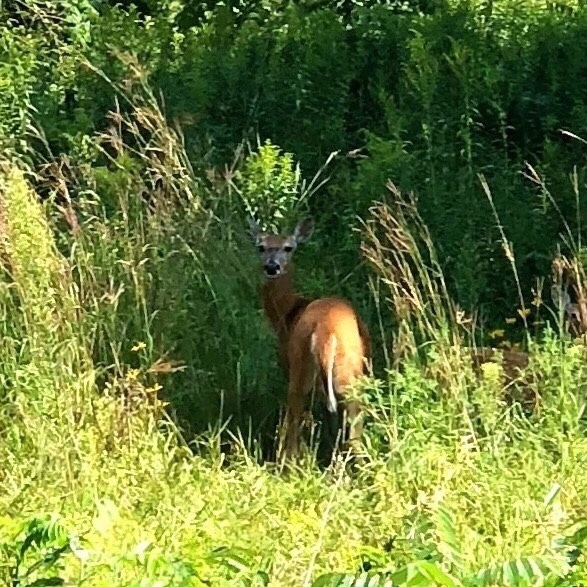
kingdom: Animalia
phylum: Chordata
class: Mammalia
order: Artiodactyla
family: Cervidae
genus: Odocoileus
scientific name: Odocoileus virginianus
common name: White-tailed deer
